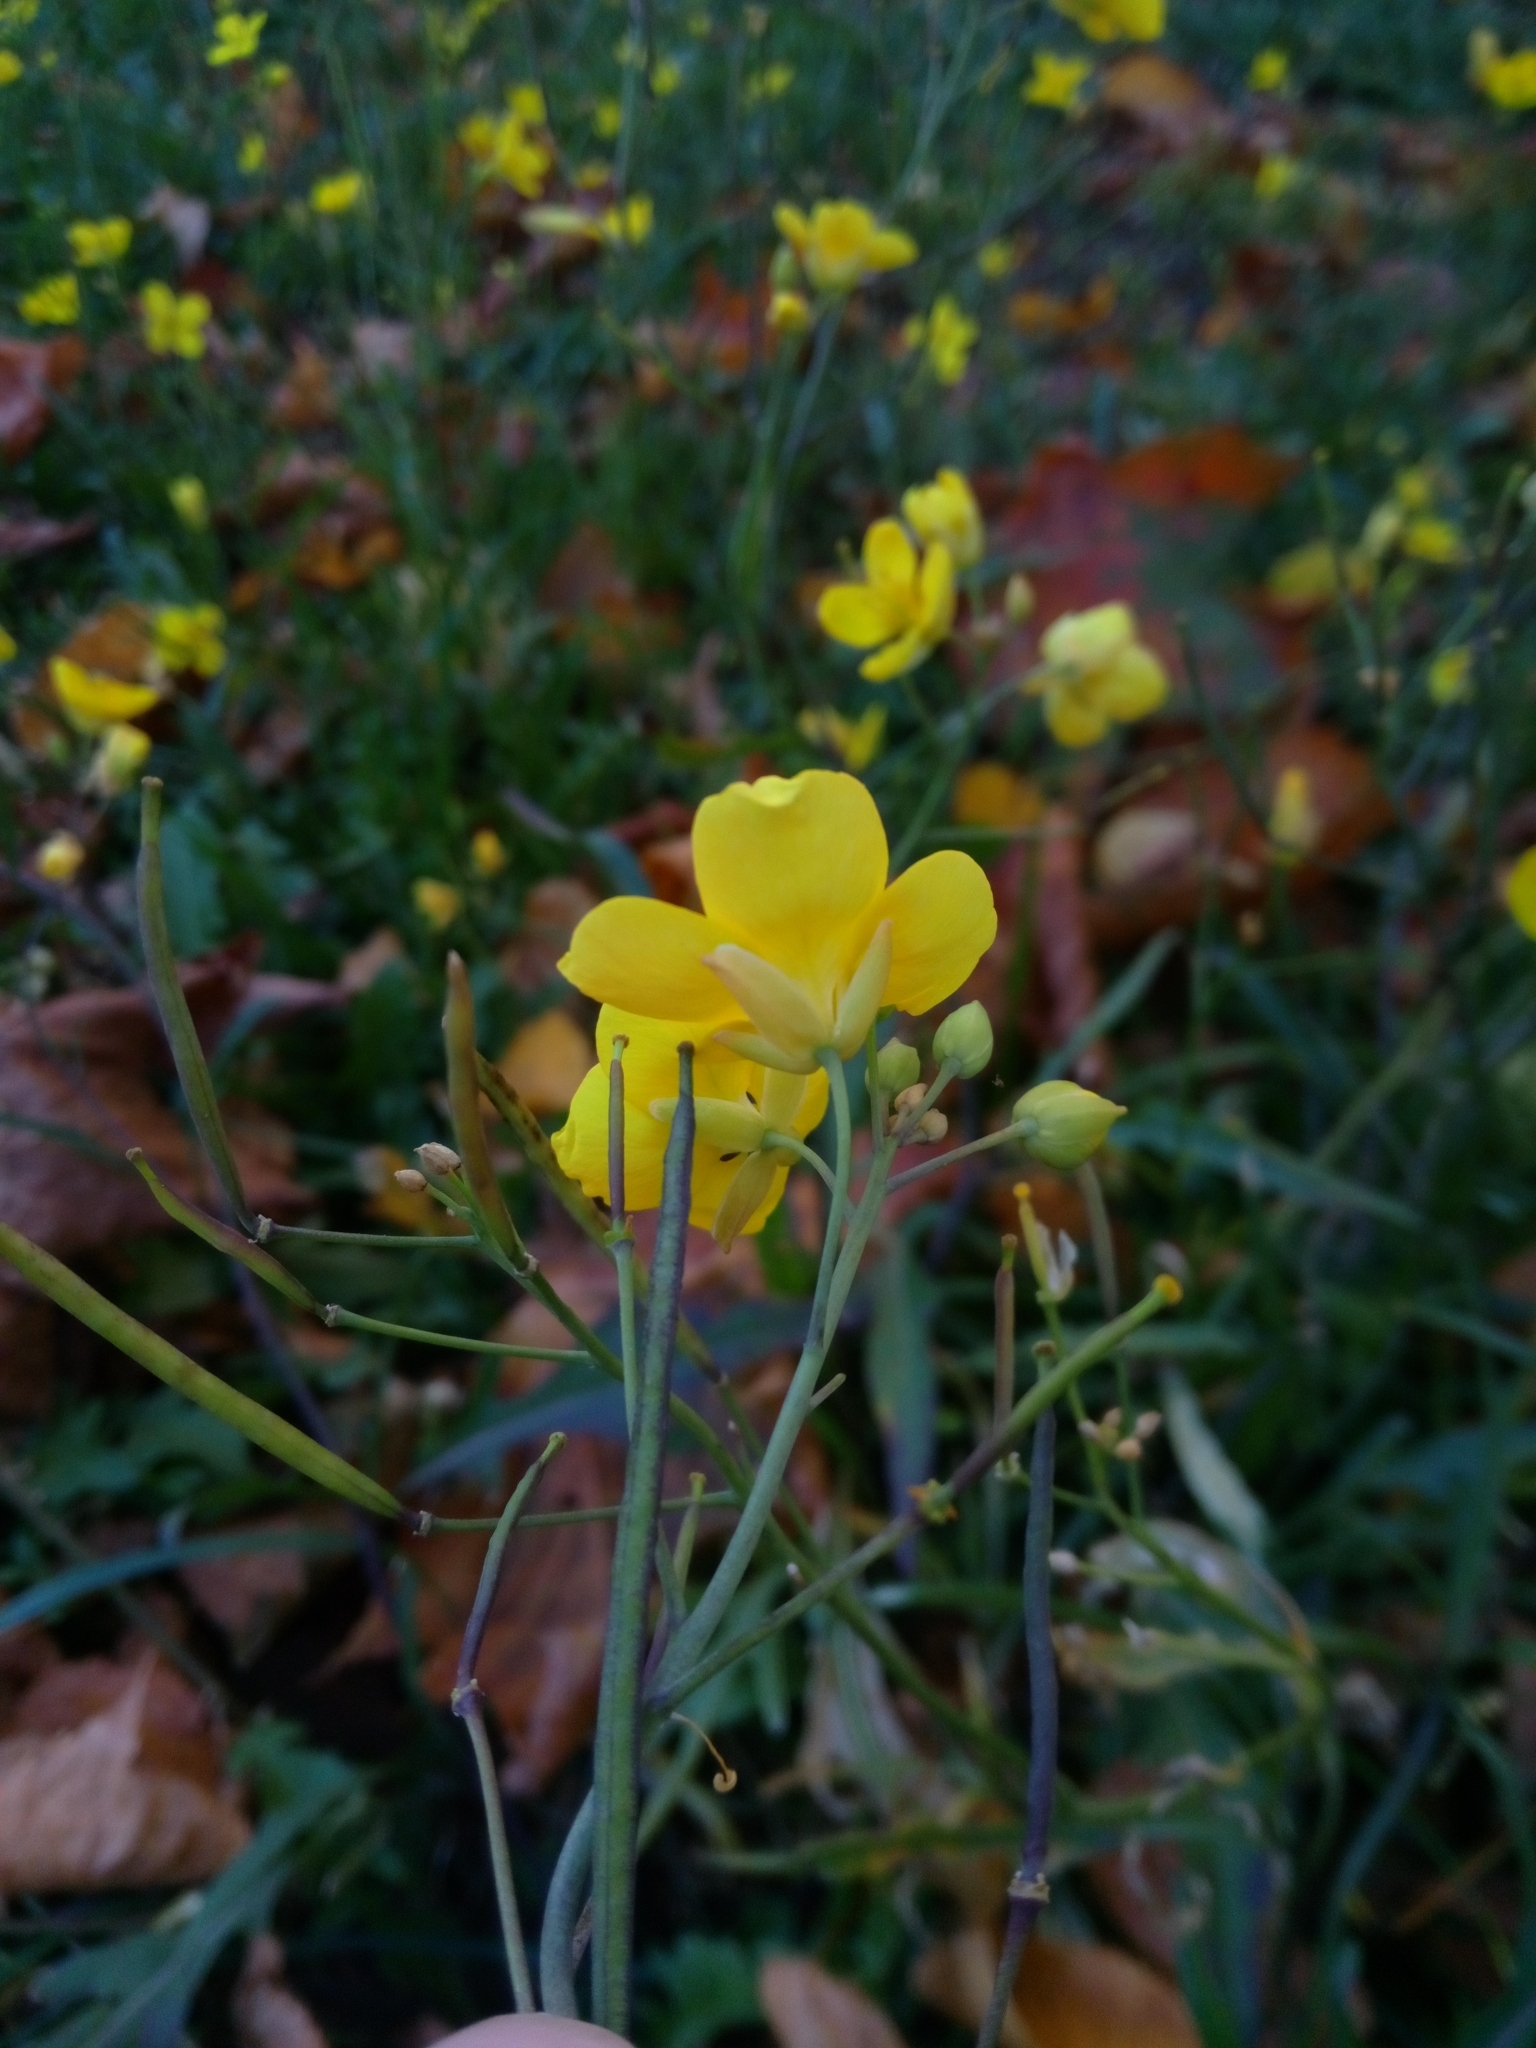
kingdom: Plantae
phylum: Tracheophyta
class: Magnoliopsida
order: Brassicales
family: Brassicaceae
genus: Diplotaxis
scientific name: Diplotaxis tenuifolia
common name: Perennial wall-rocket
